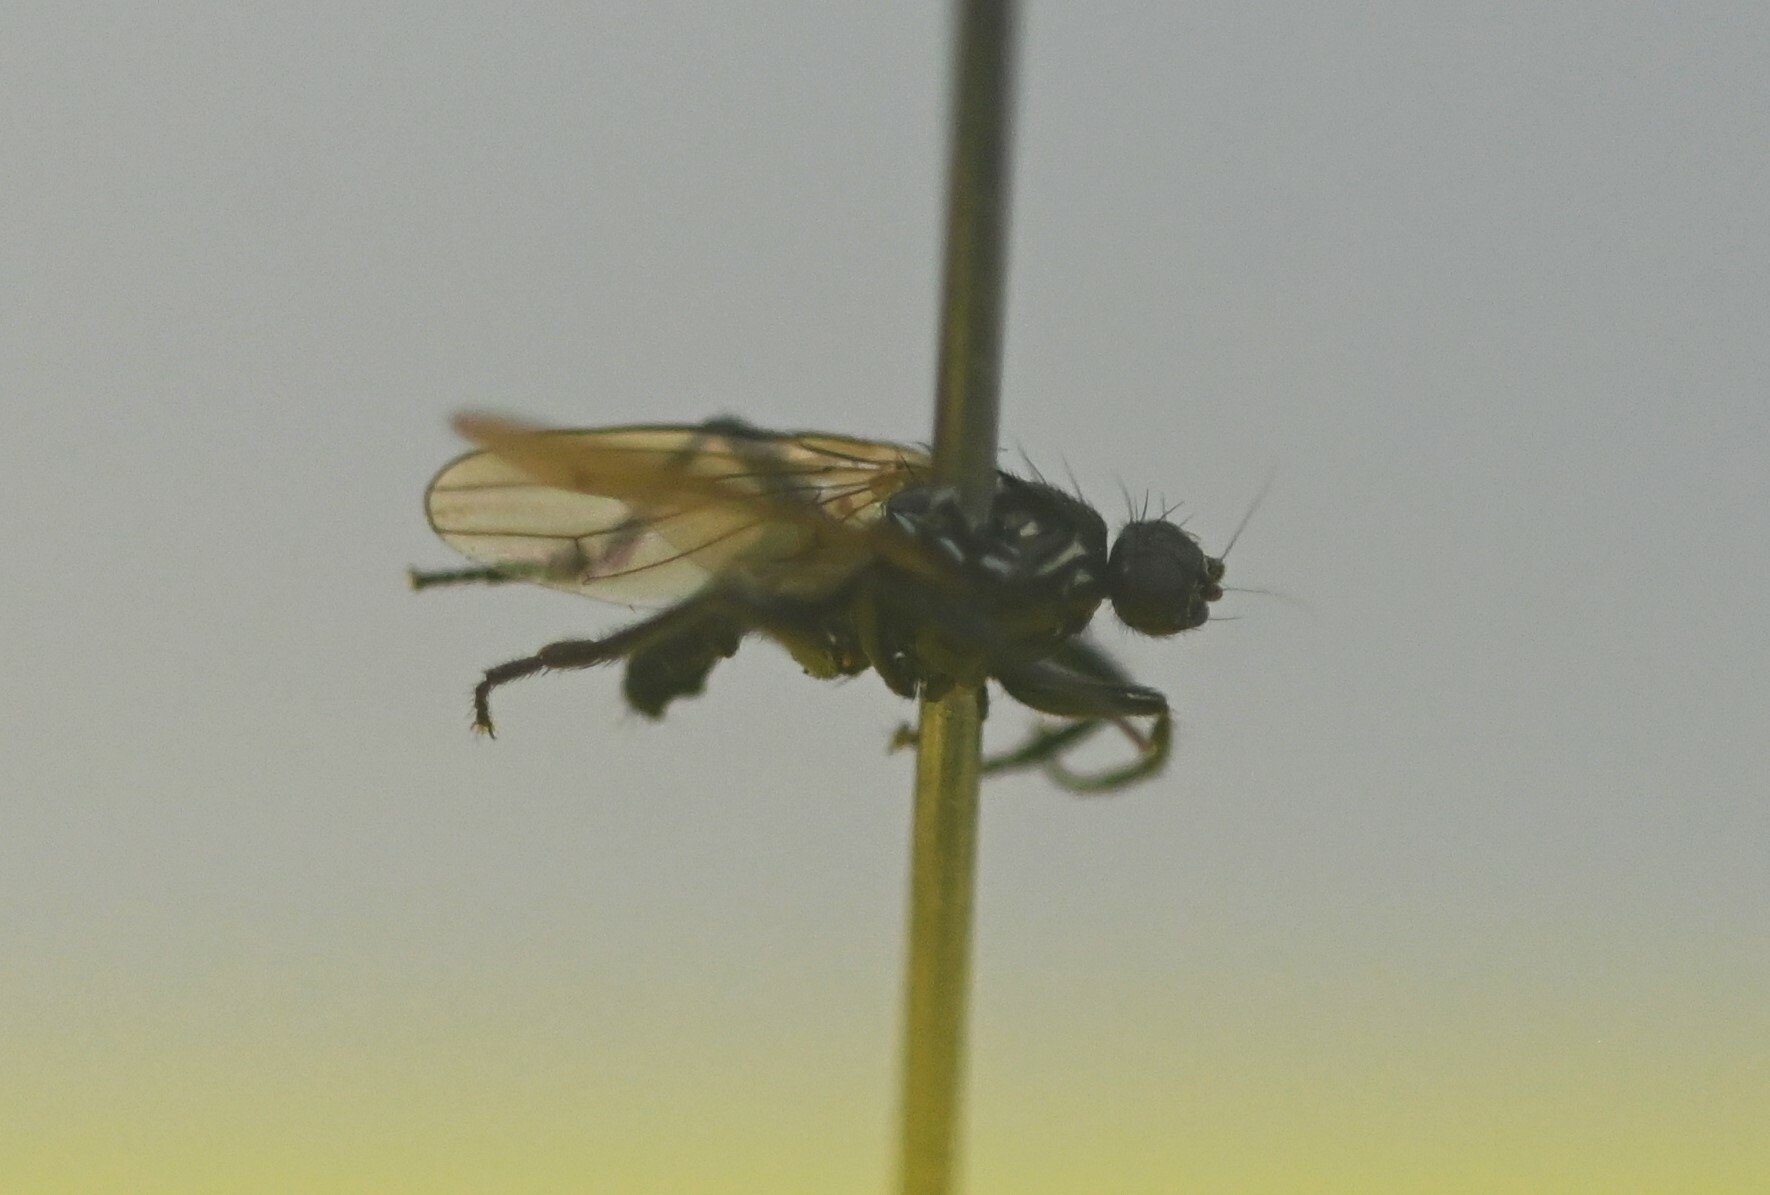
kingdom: Animalia
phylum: Arthropoda
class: Insecta
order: Diptera
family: Sphaeroceridae
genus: Crumomyia
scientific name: Crumomyia nitida
